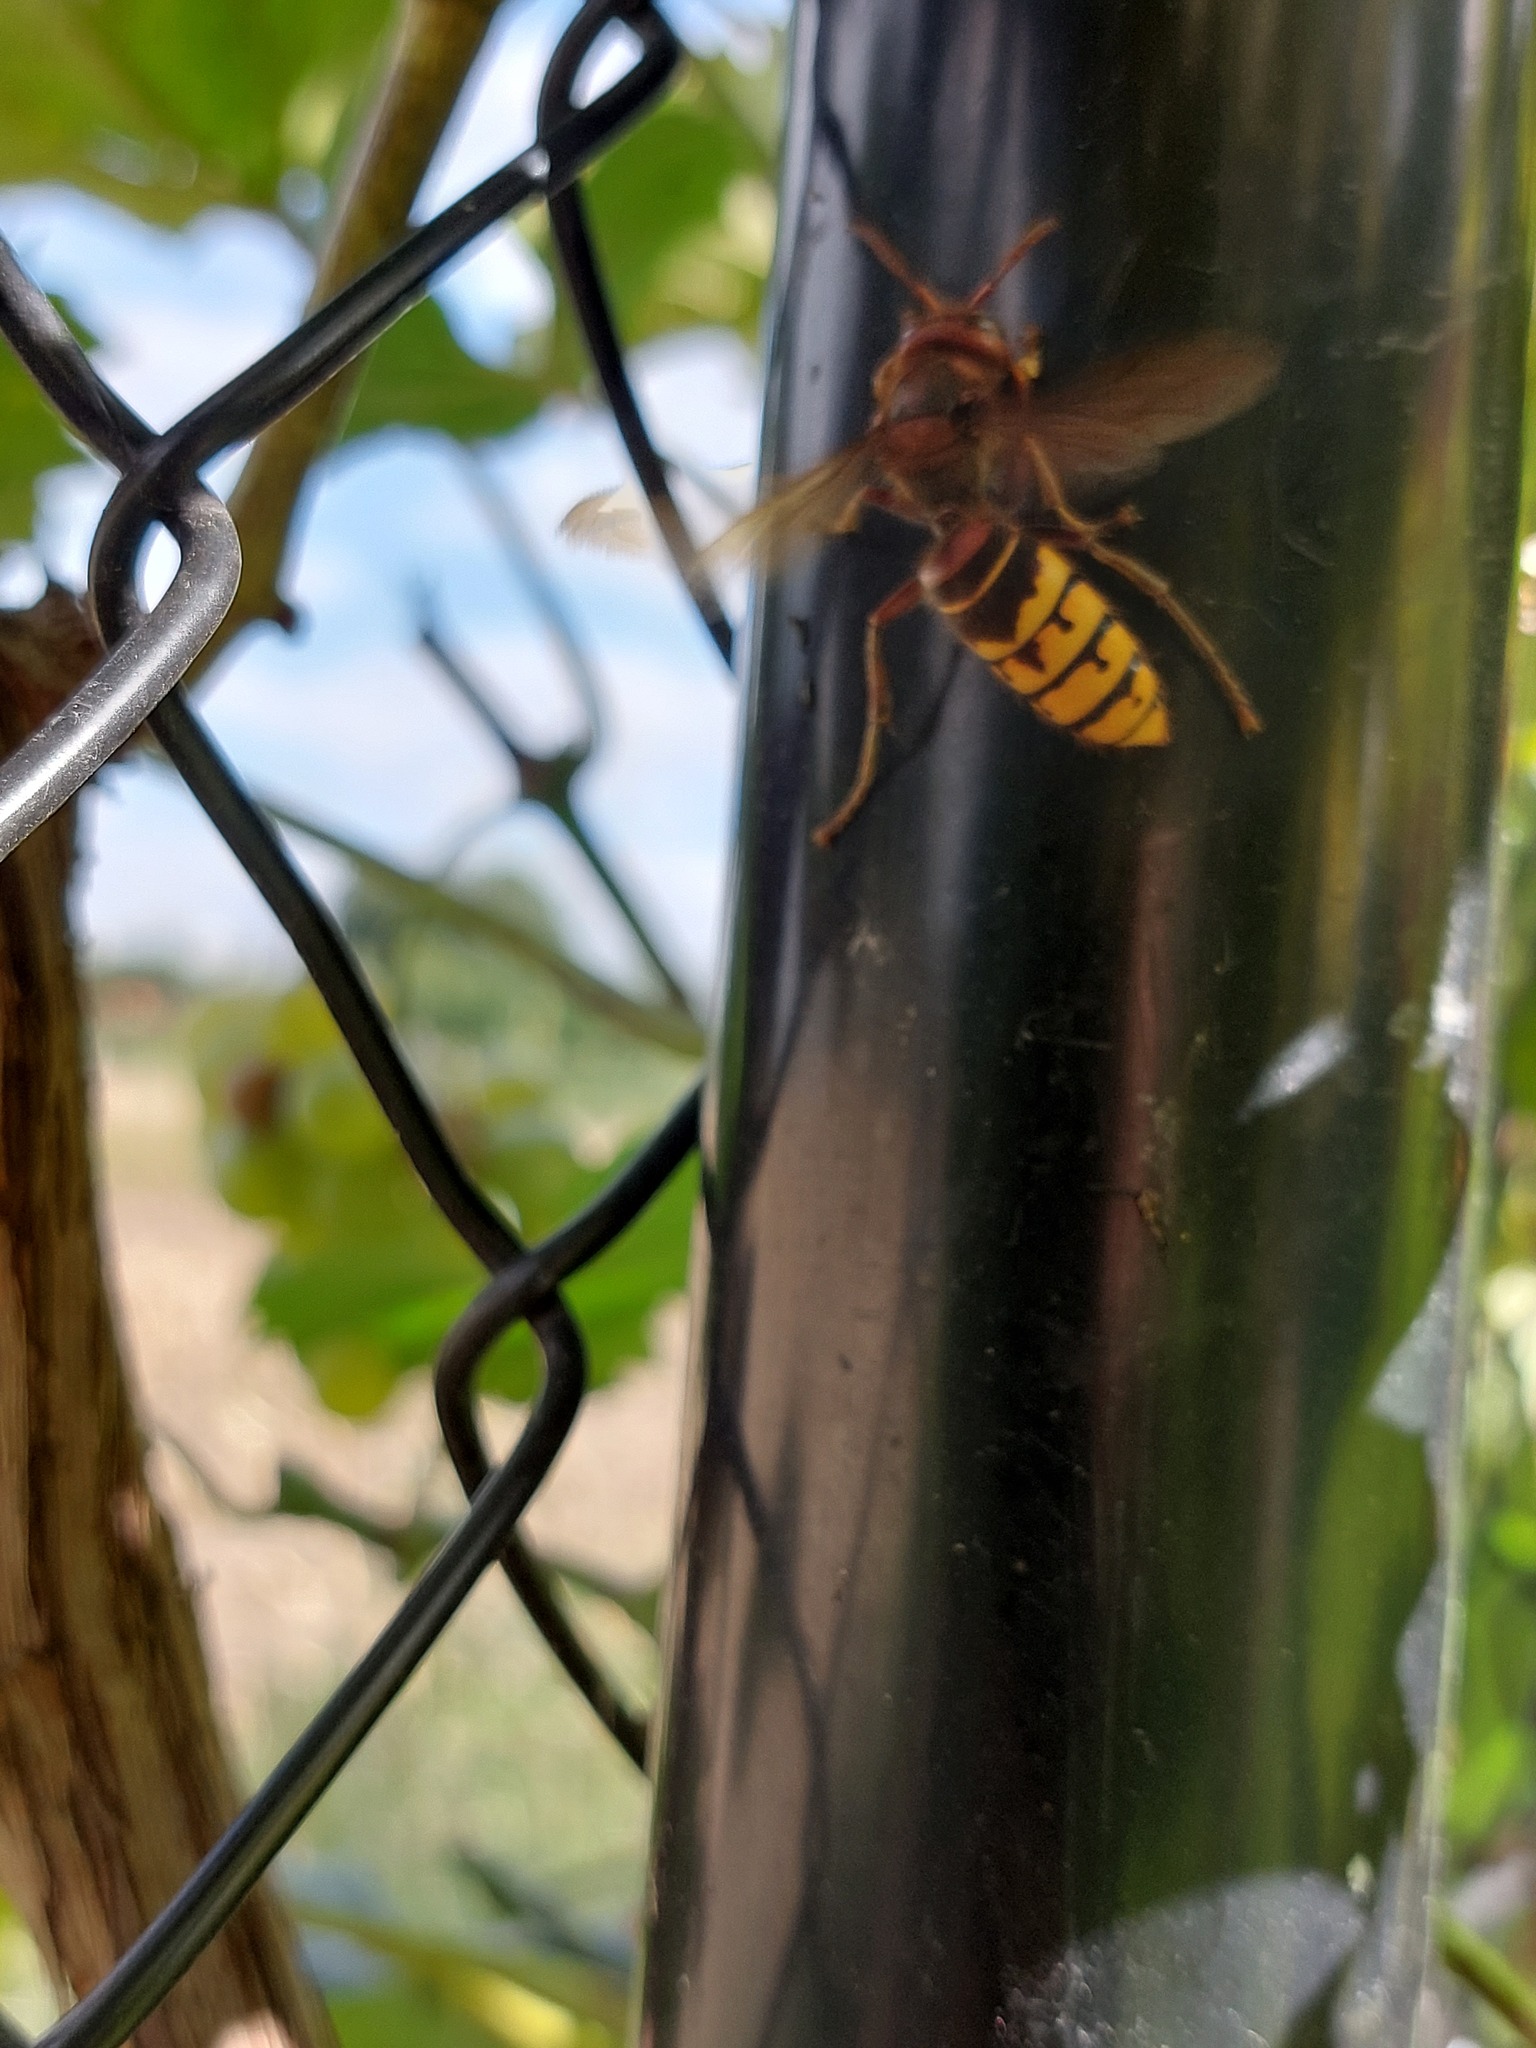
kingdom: Animalia
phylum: Arthropoda
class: Insecta
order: Hymenoptera
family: Vespidae
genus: Vespa
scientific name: Vespa crabro
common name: Hornet
